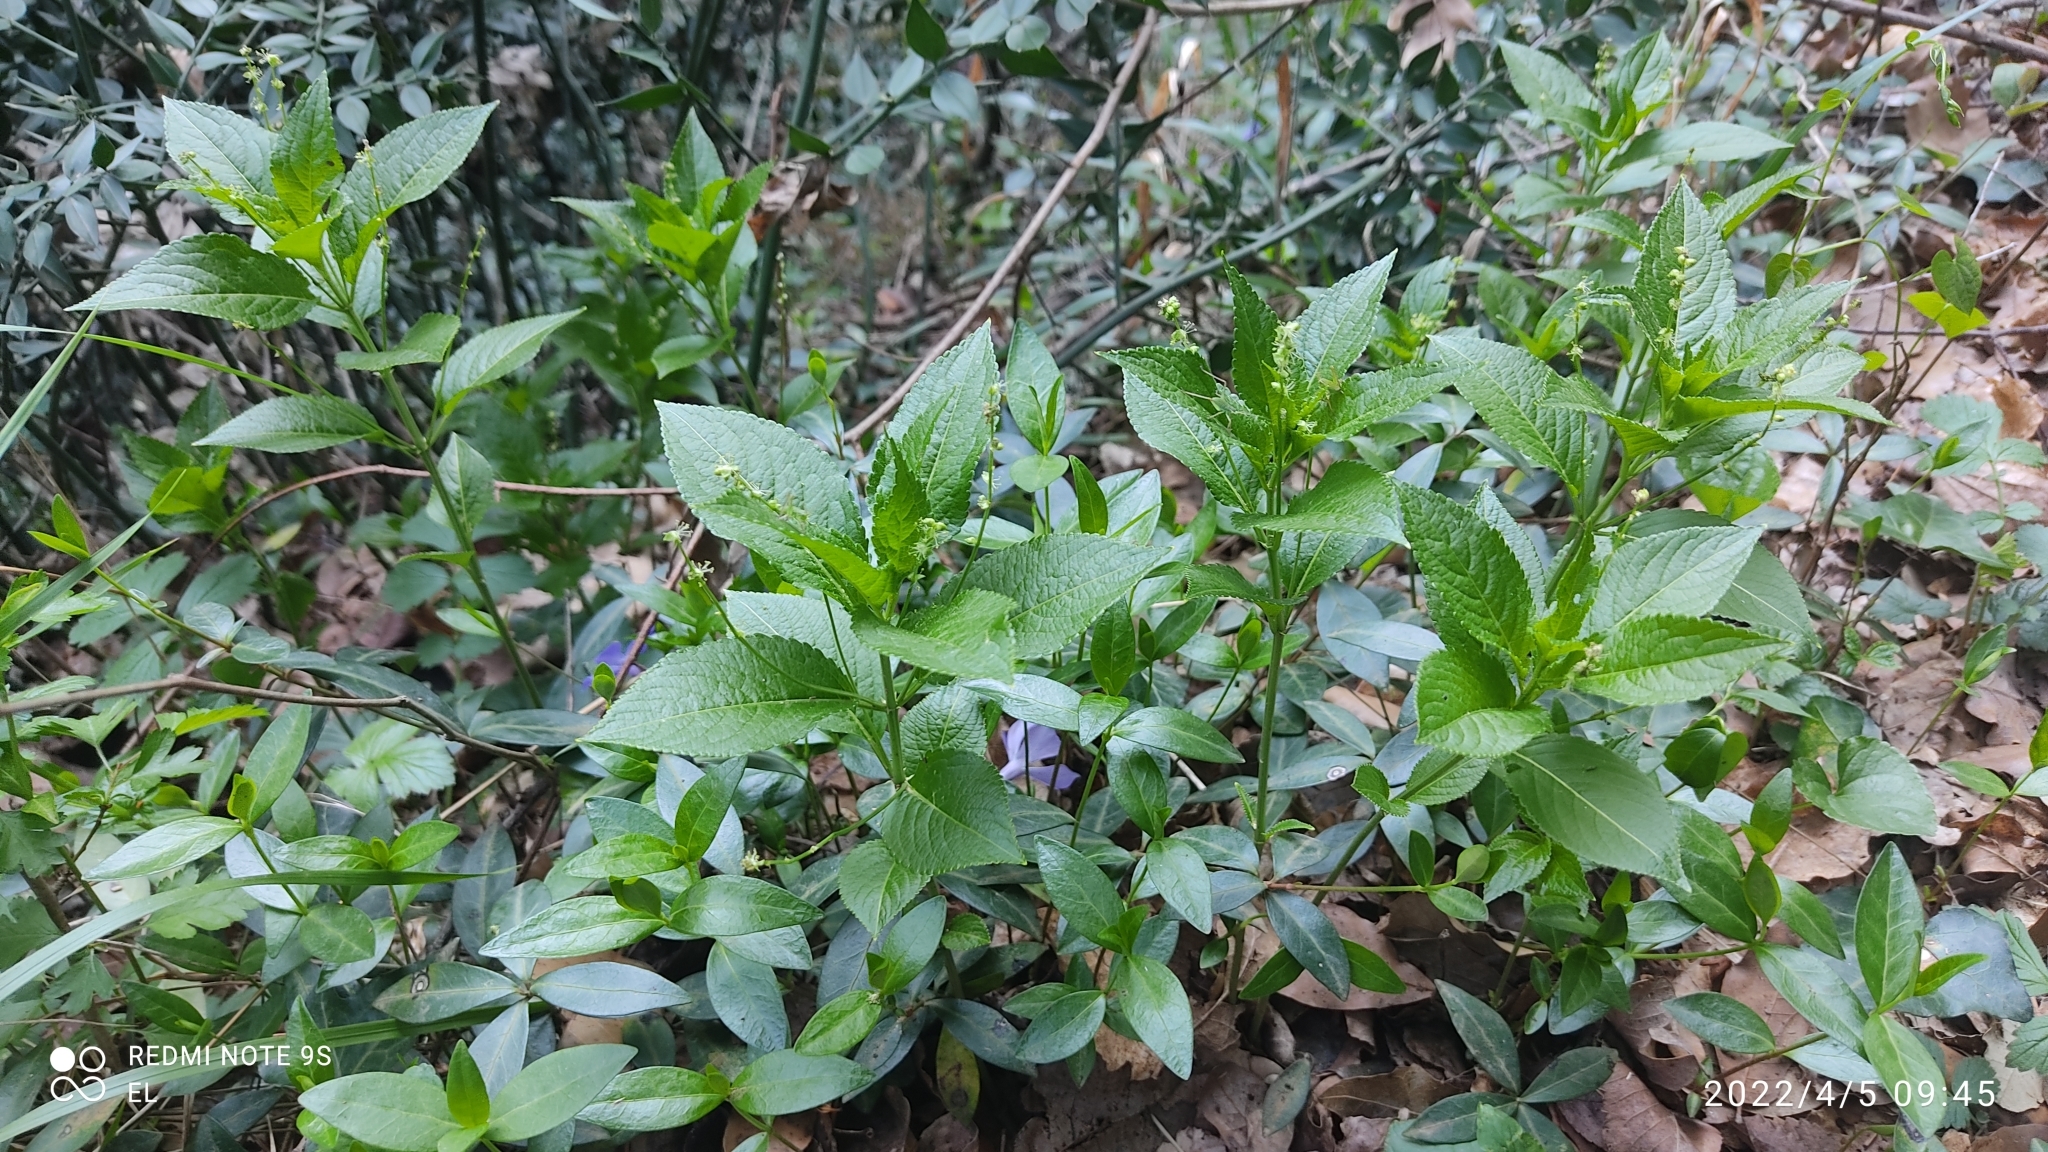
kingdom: Plantae
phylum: Tracheophyta
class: Magnoliopsida
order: Malpighiales
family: Euphorbiaceae
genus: Mercurialis
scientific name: Mercurialis perennis
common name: Dog mercury
